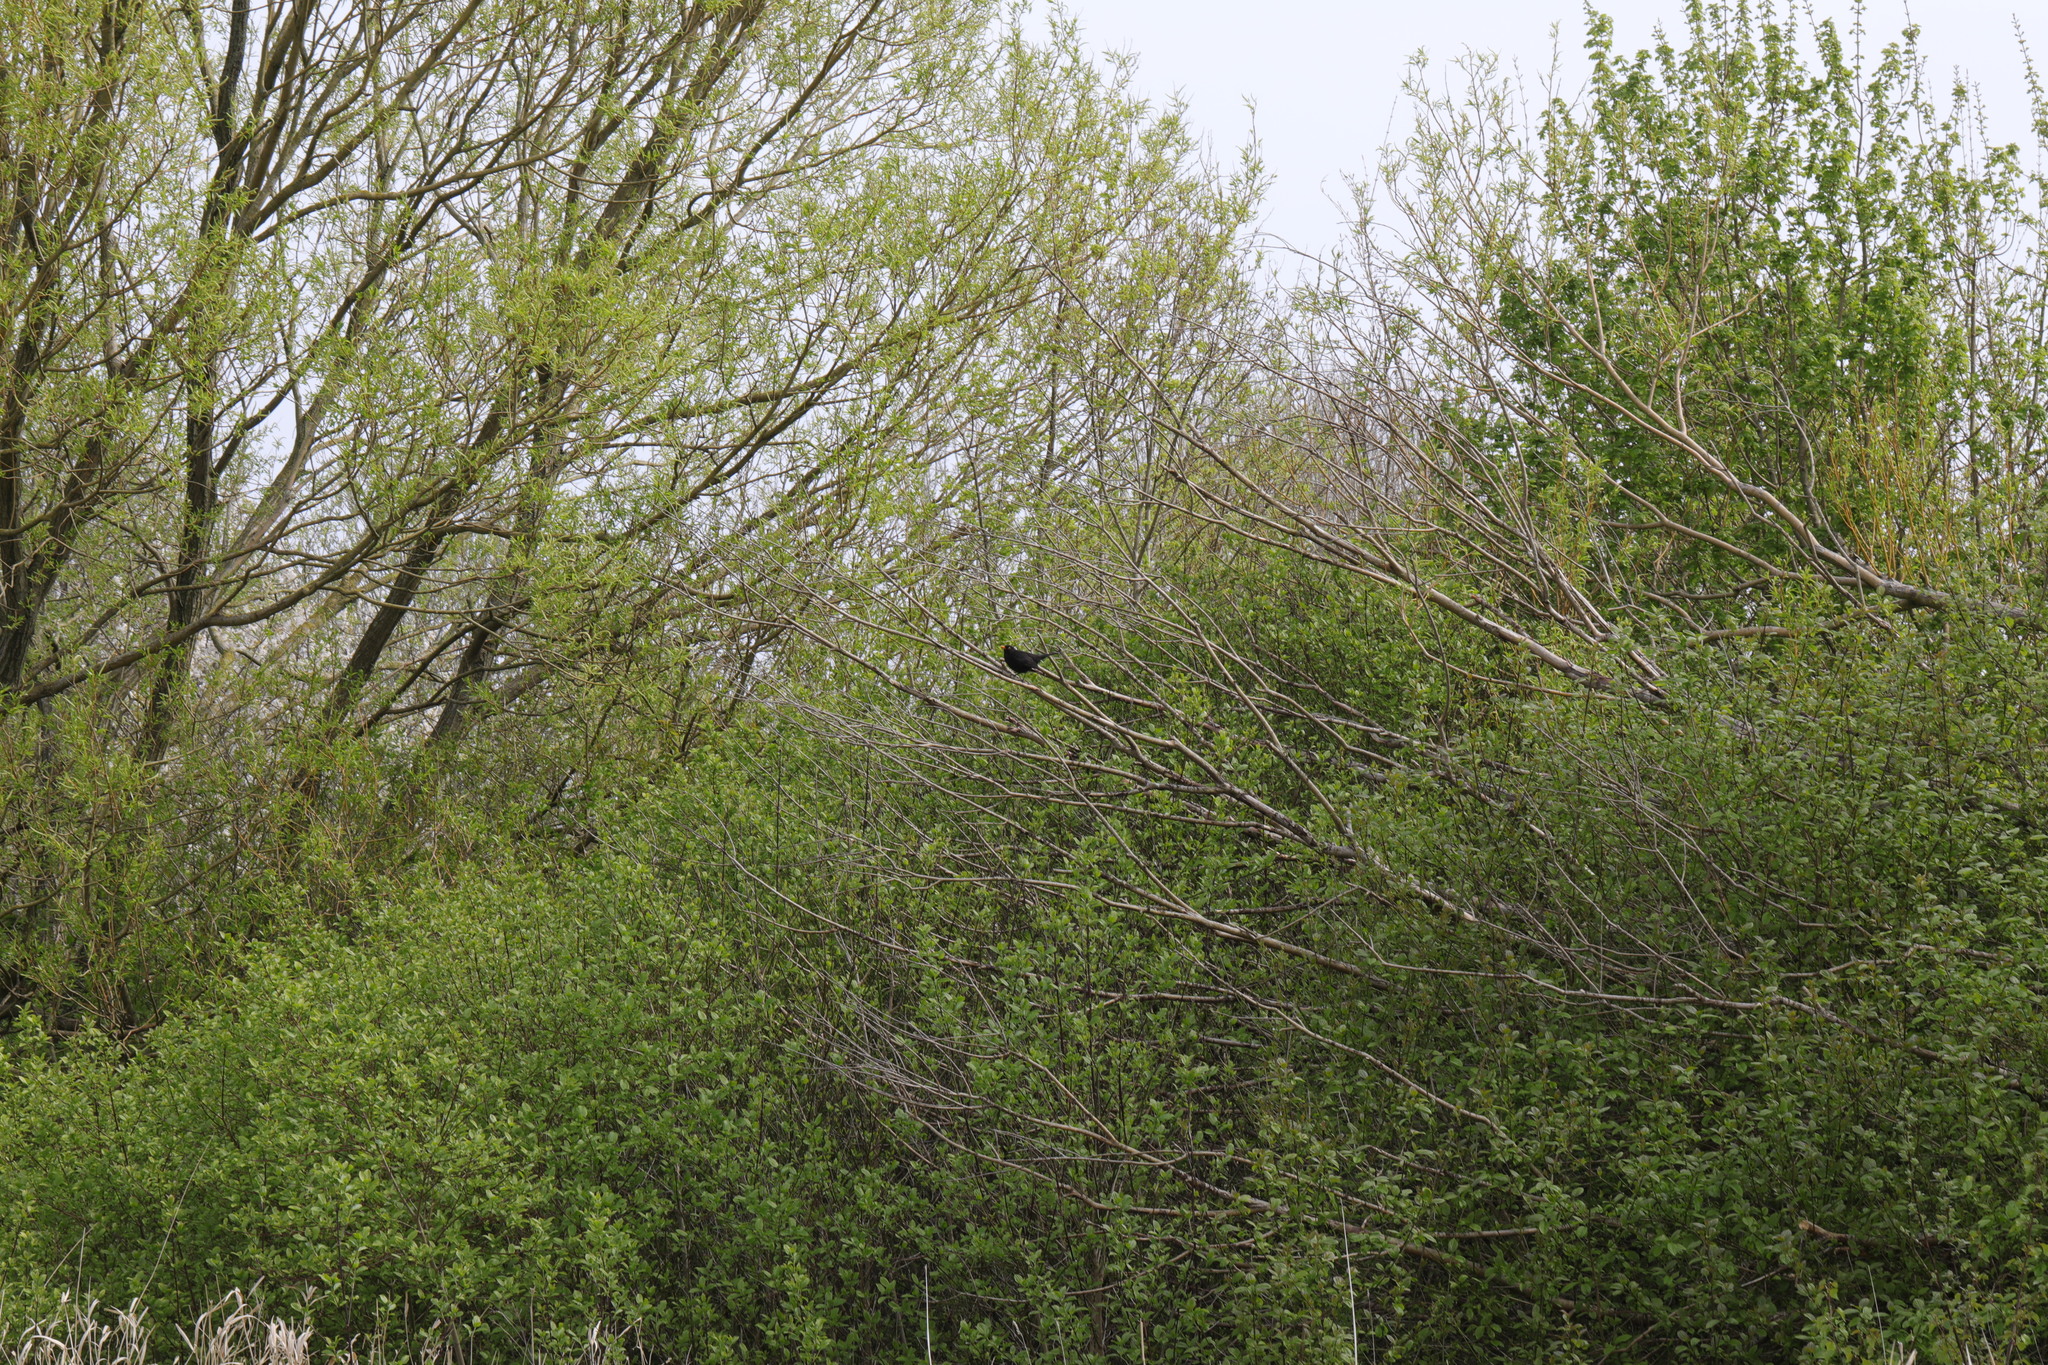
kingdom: Animalia
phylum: Chordata
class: Aves
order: Passeriformes
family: Turdidae
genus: Turdus
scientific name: Turdus merula
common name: Common blackbird
